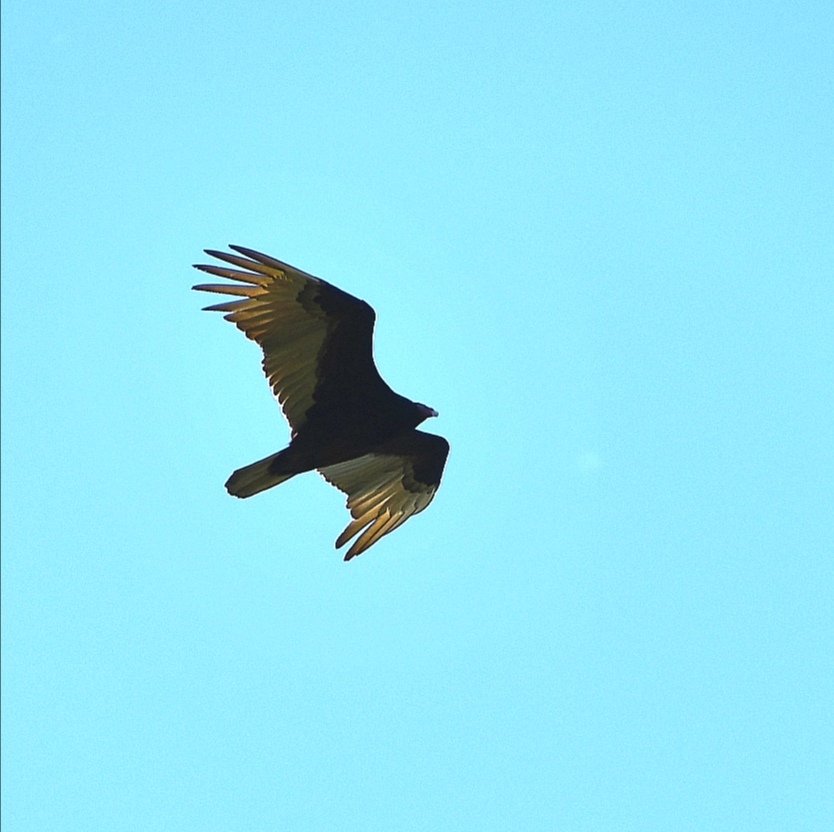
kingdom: Animalia
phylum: Chordata
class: Aves
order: Accipitriformes
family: Cathartidae
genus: Cathartes
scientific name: Cathartes aura
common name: Turkey vulture
